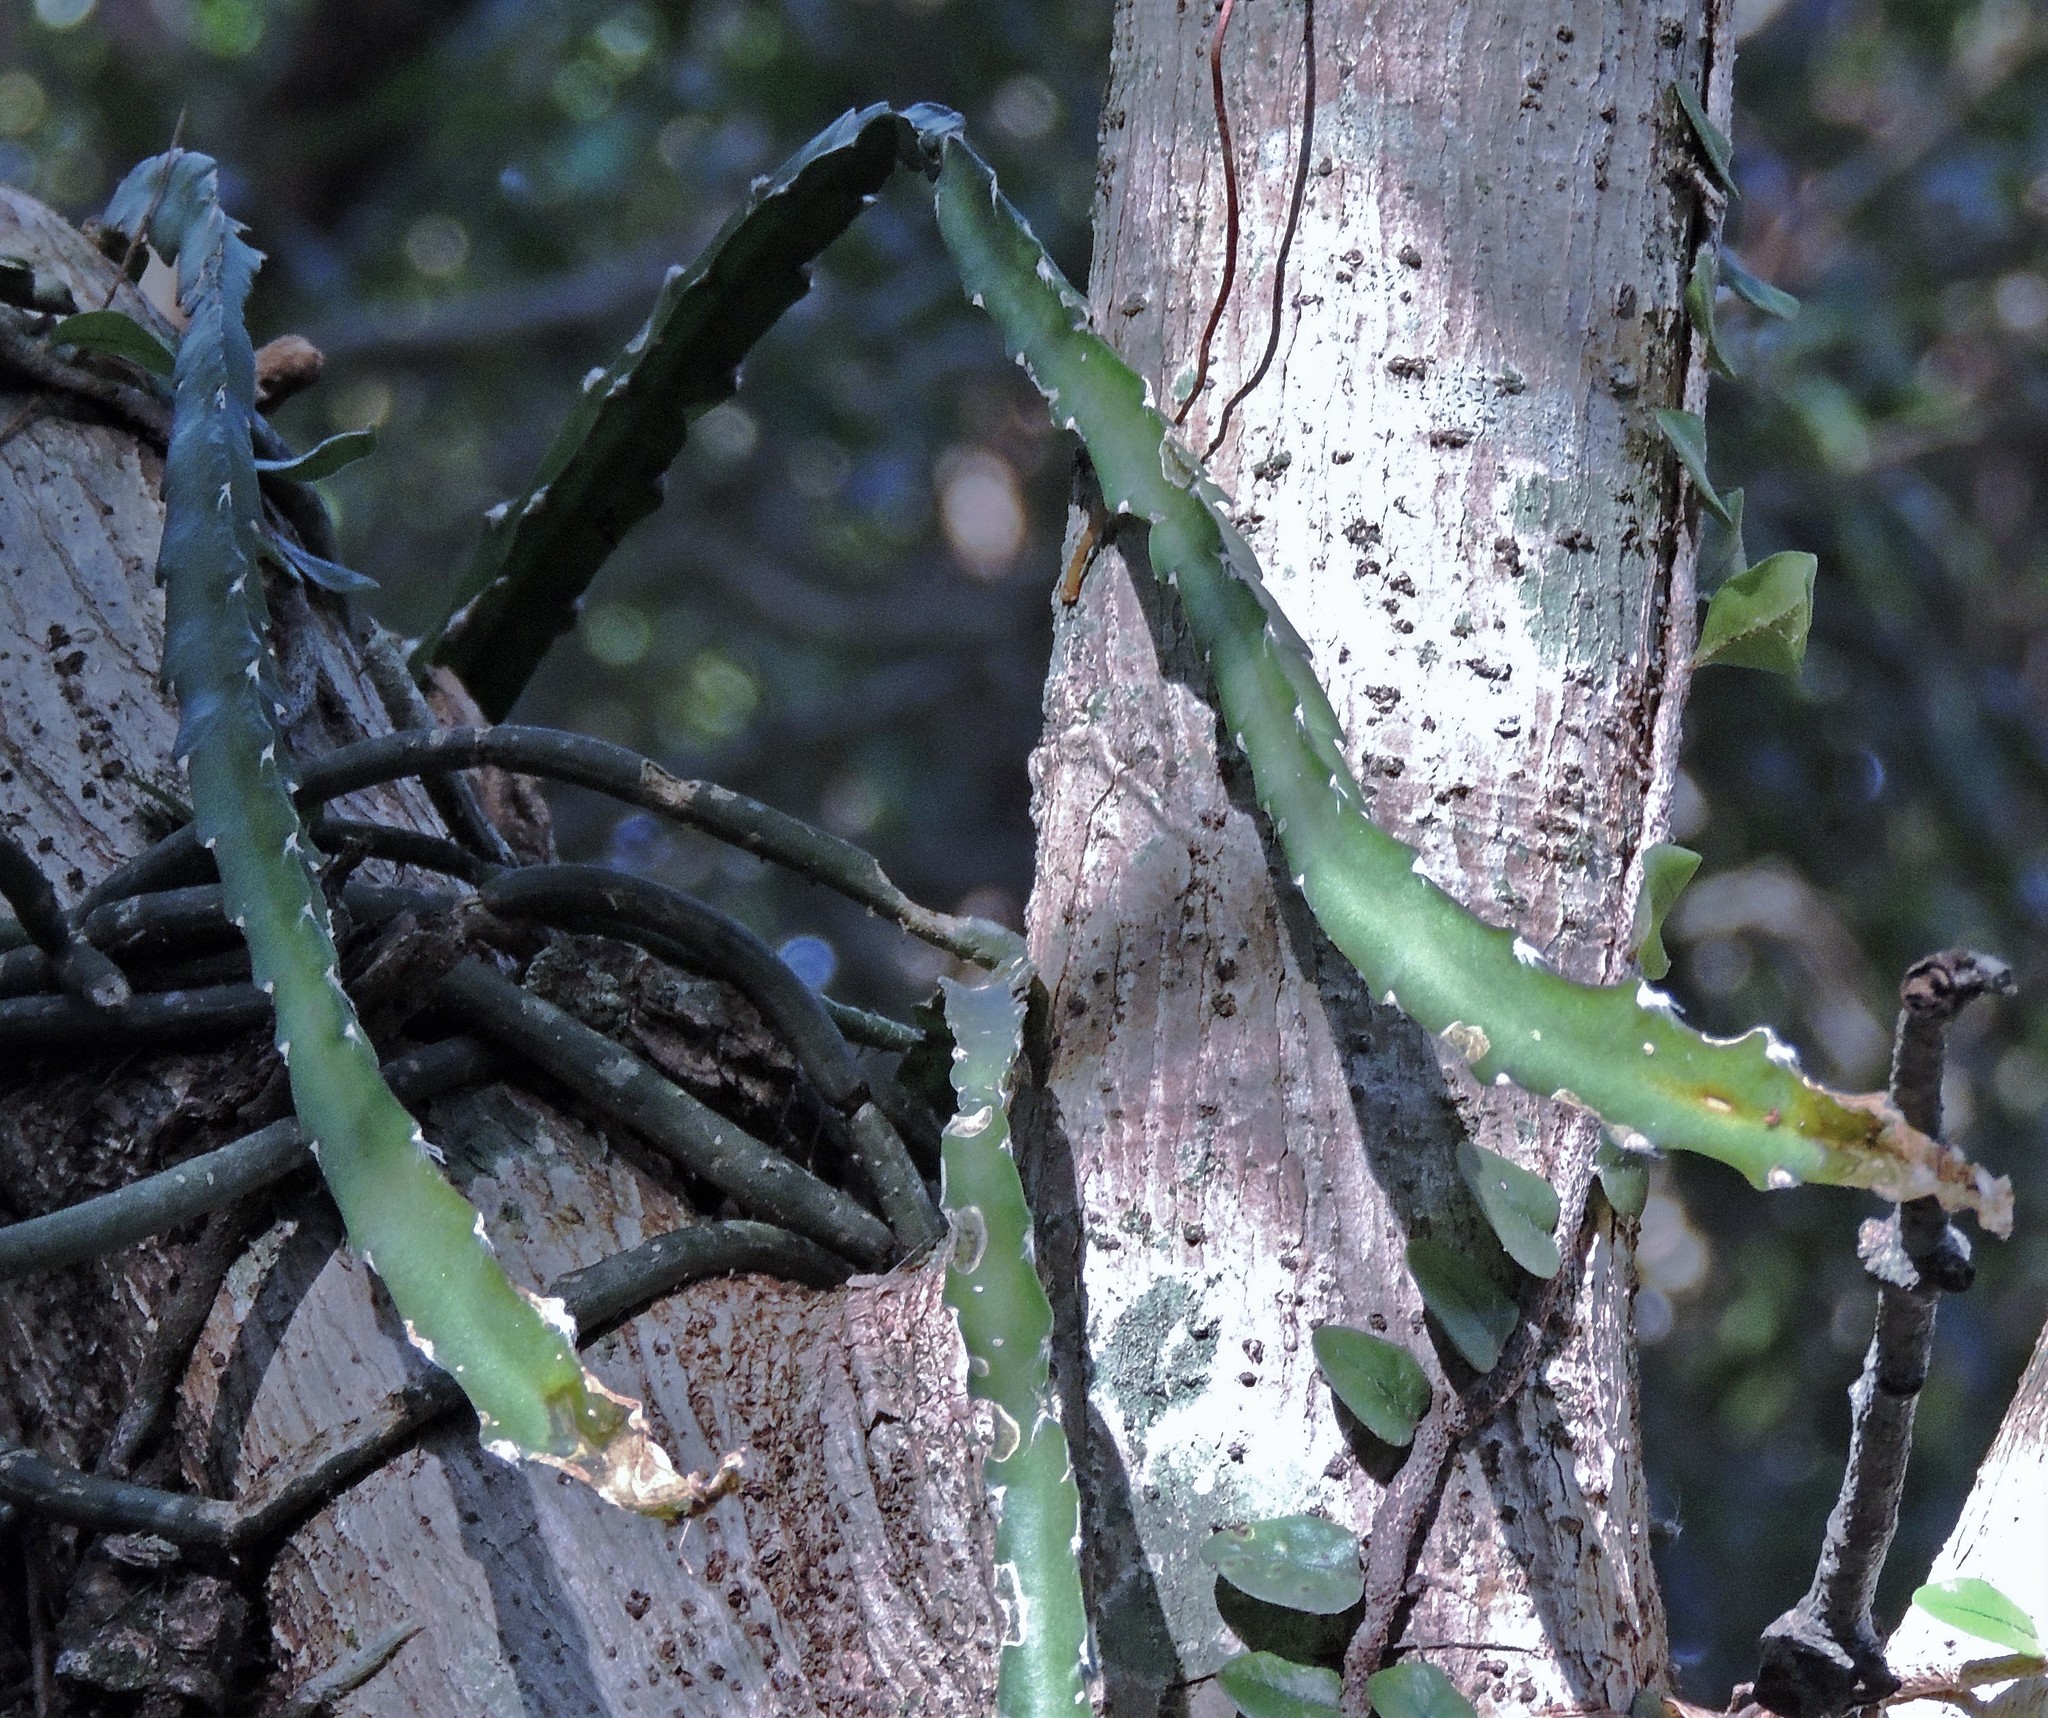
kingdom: Plantae
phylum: Tracheophyta
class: Magnoliopsida
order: Caryophyllales
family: Cactaceae
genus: Lepismium
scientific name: Lepismium cruciforme
